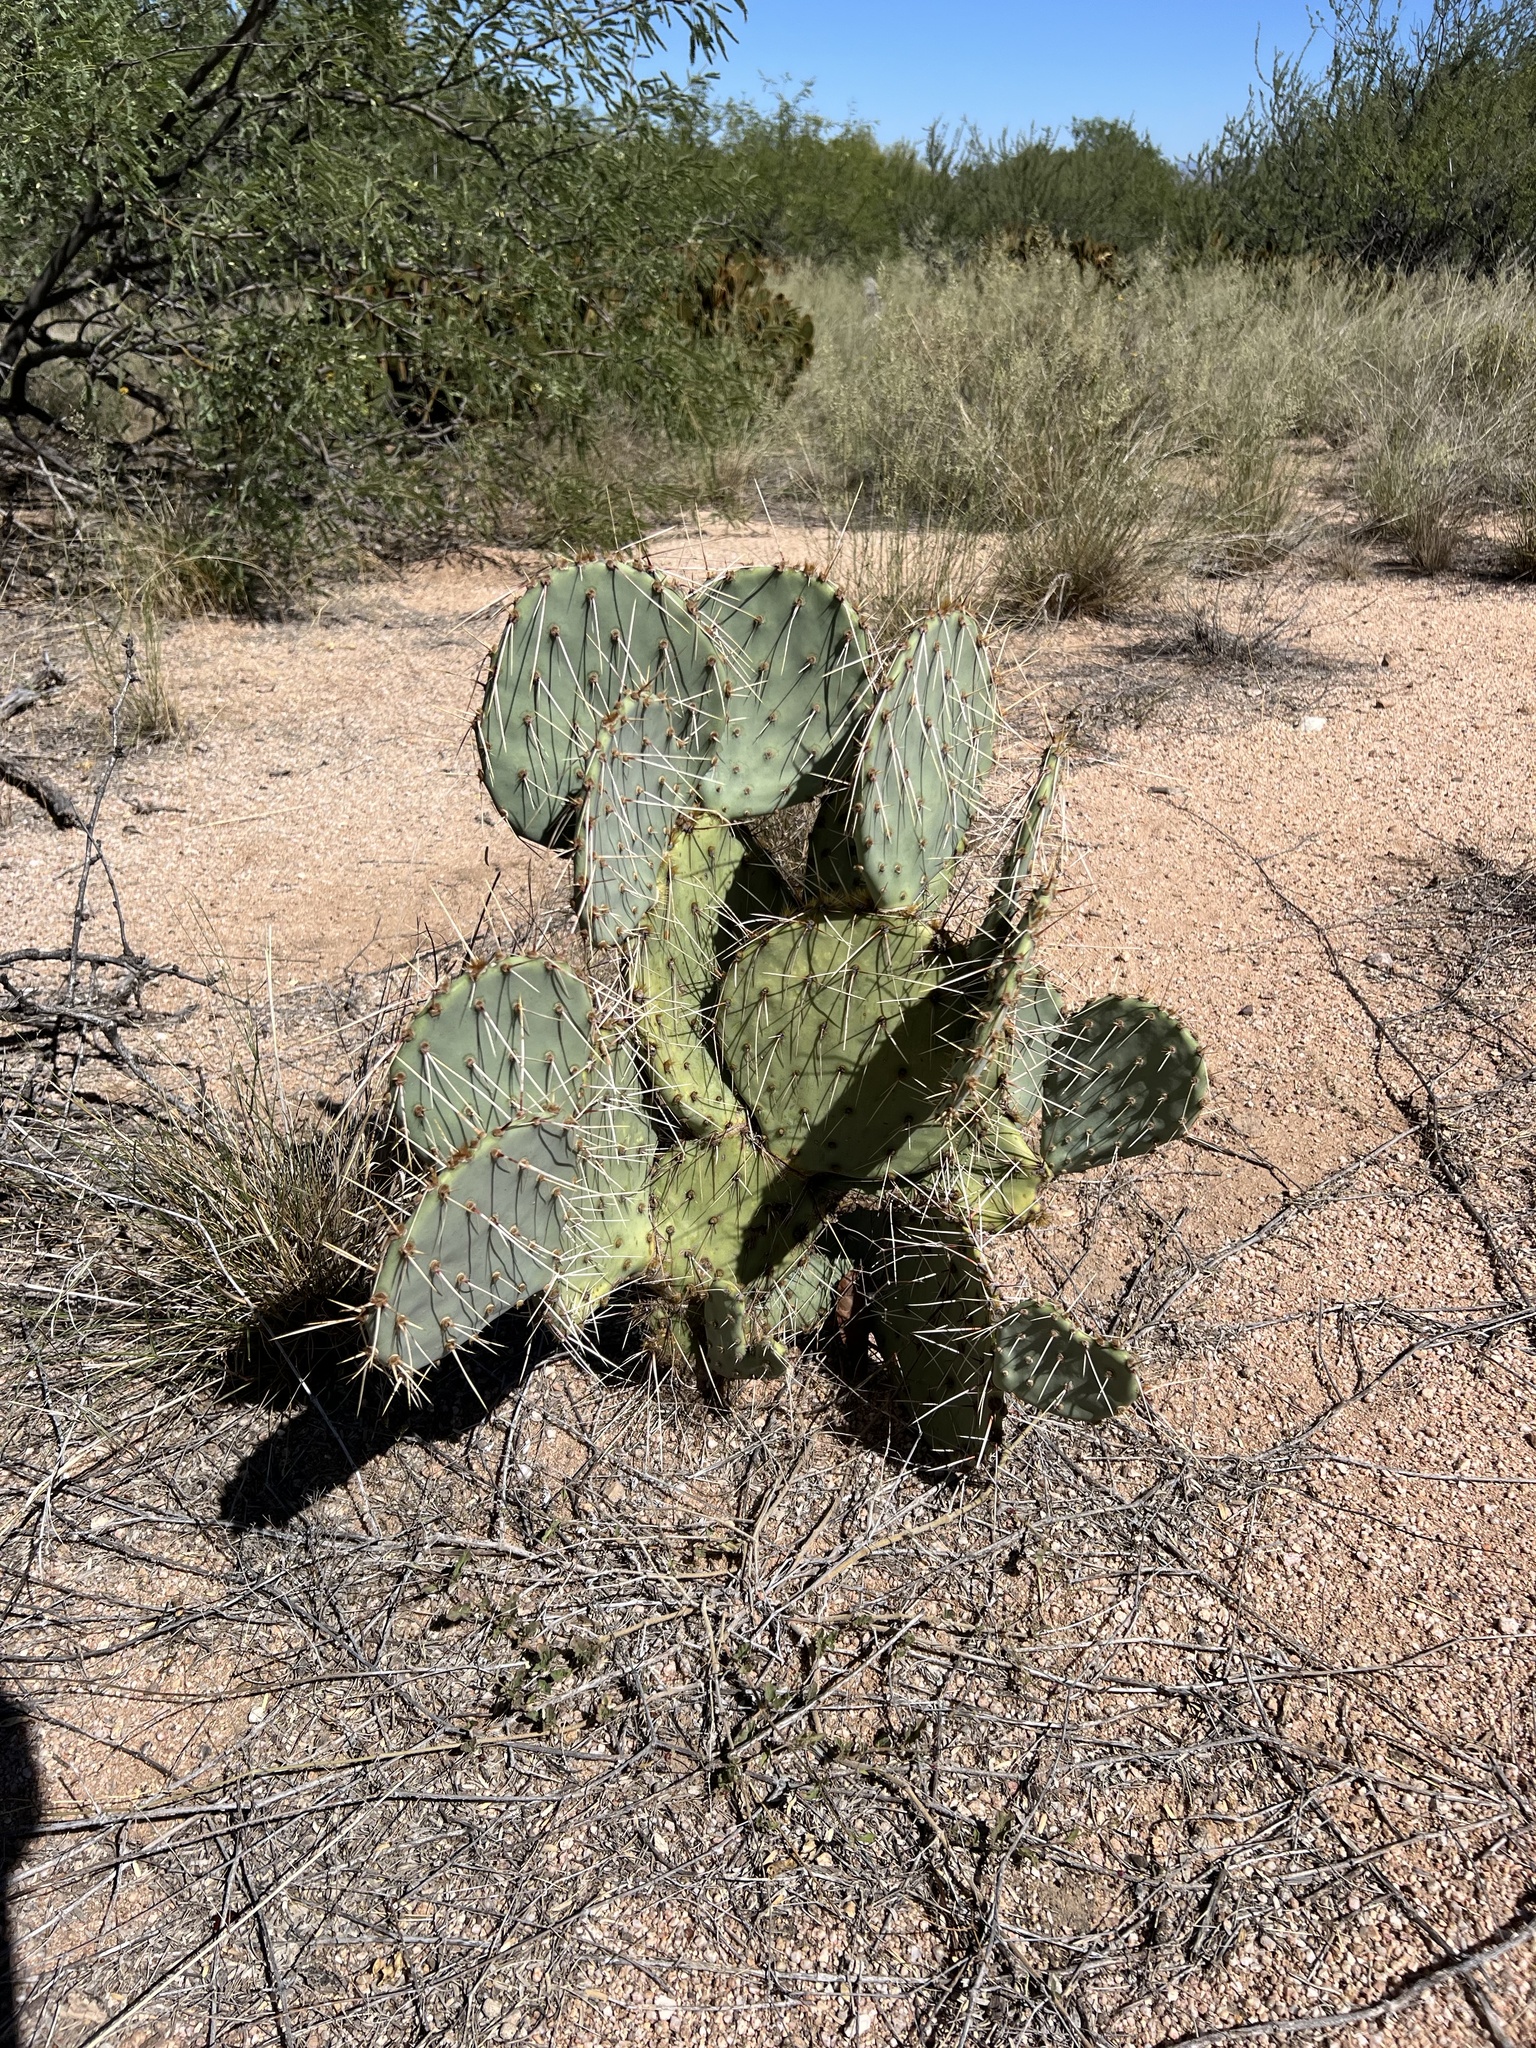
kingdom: Plantae
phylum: Tracheophyta
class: Magnoliopsida
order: Caryophyllales
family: Cactaceae
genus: Opuntia
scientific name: Opuntia engelmannii
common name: Cactus-apple
